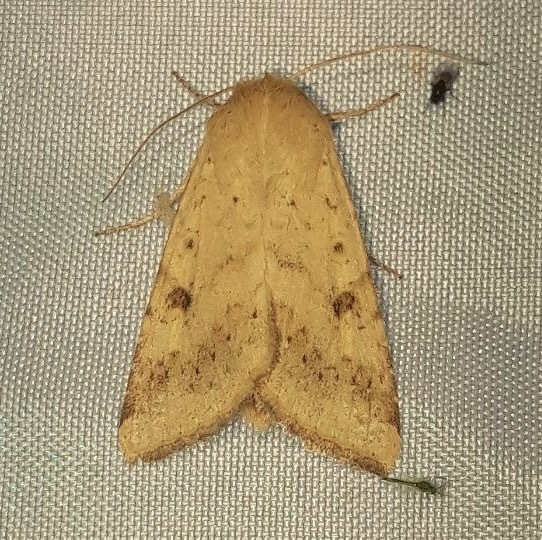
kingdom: Animalia
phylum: Arthropoda
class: Insecta
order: Lepidoptera
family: Noctuidae
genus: Helicoverpa
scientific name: Helicoverpa armigera
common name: Cotton bollworm
